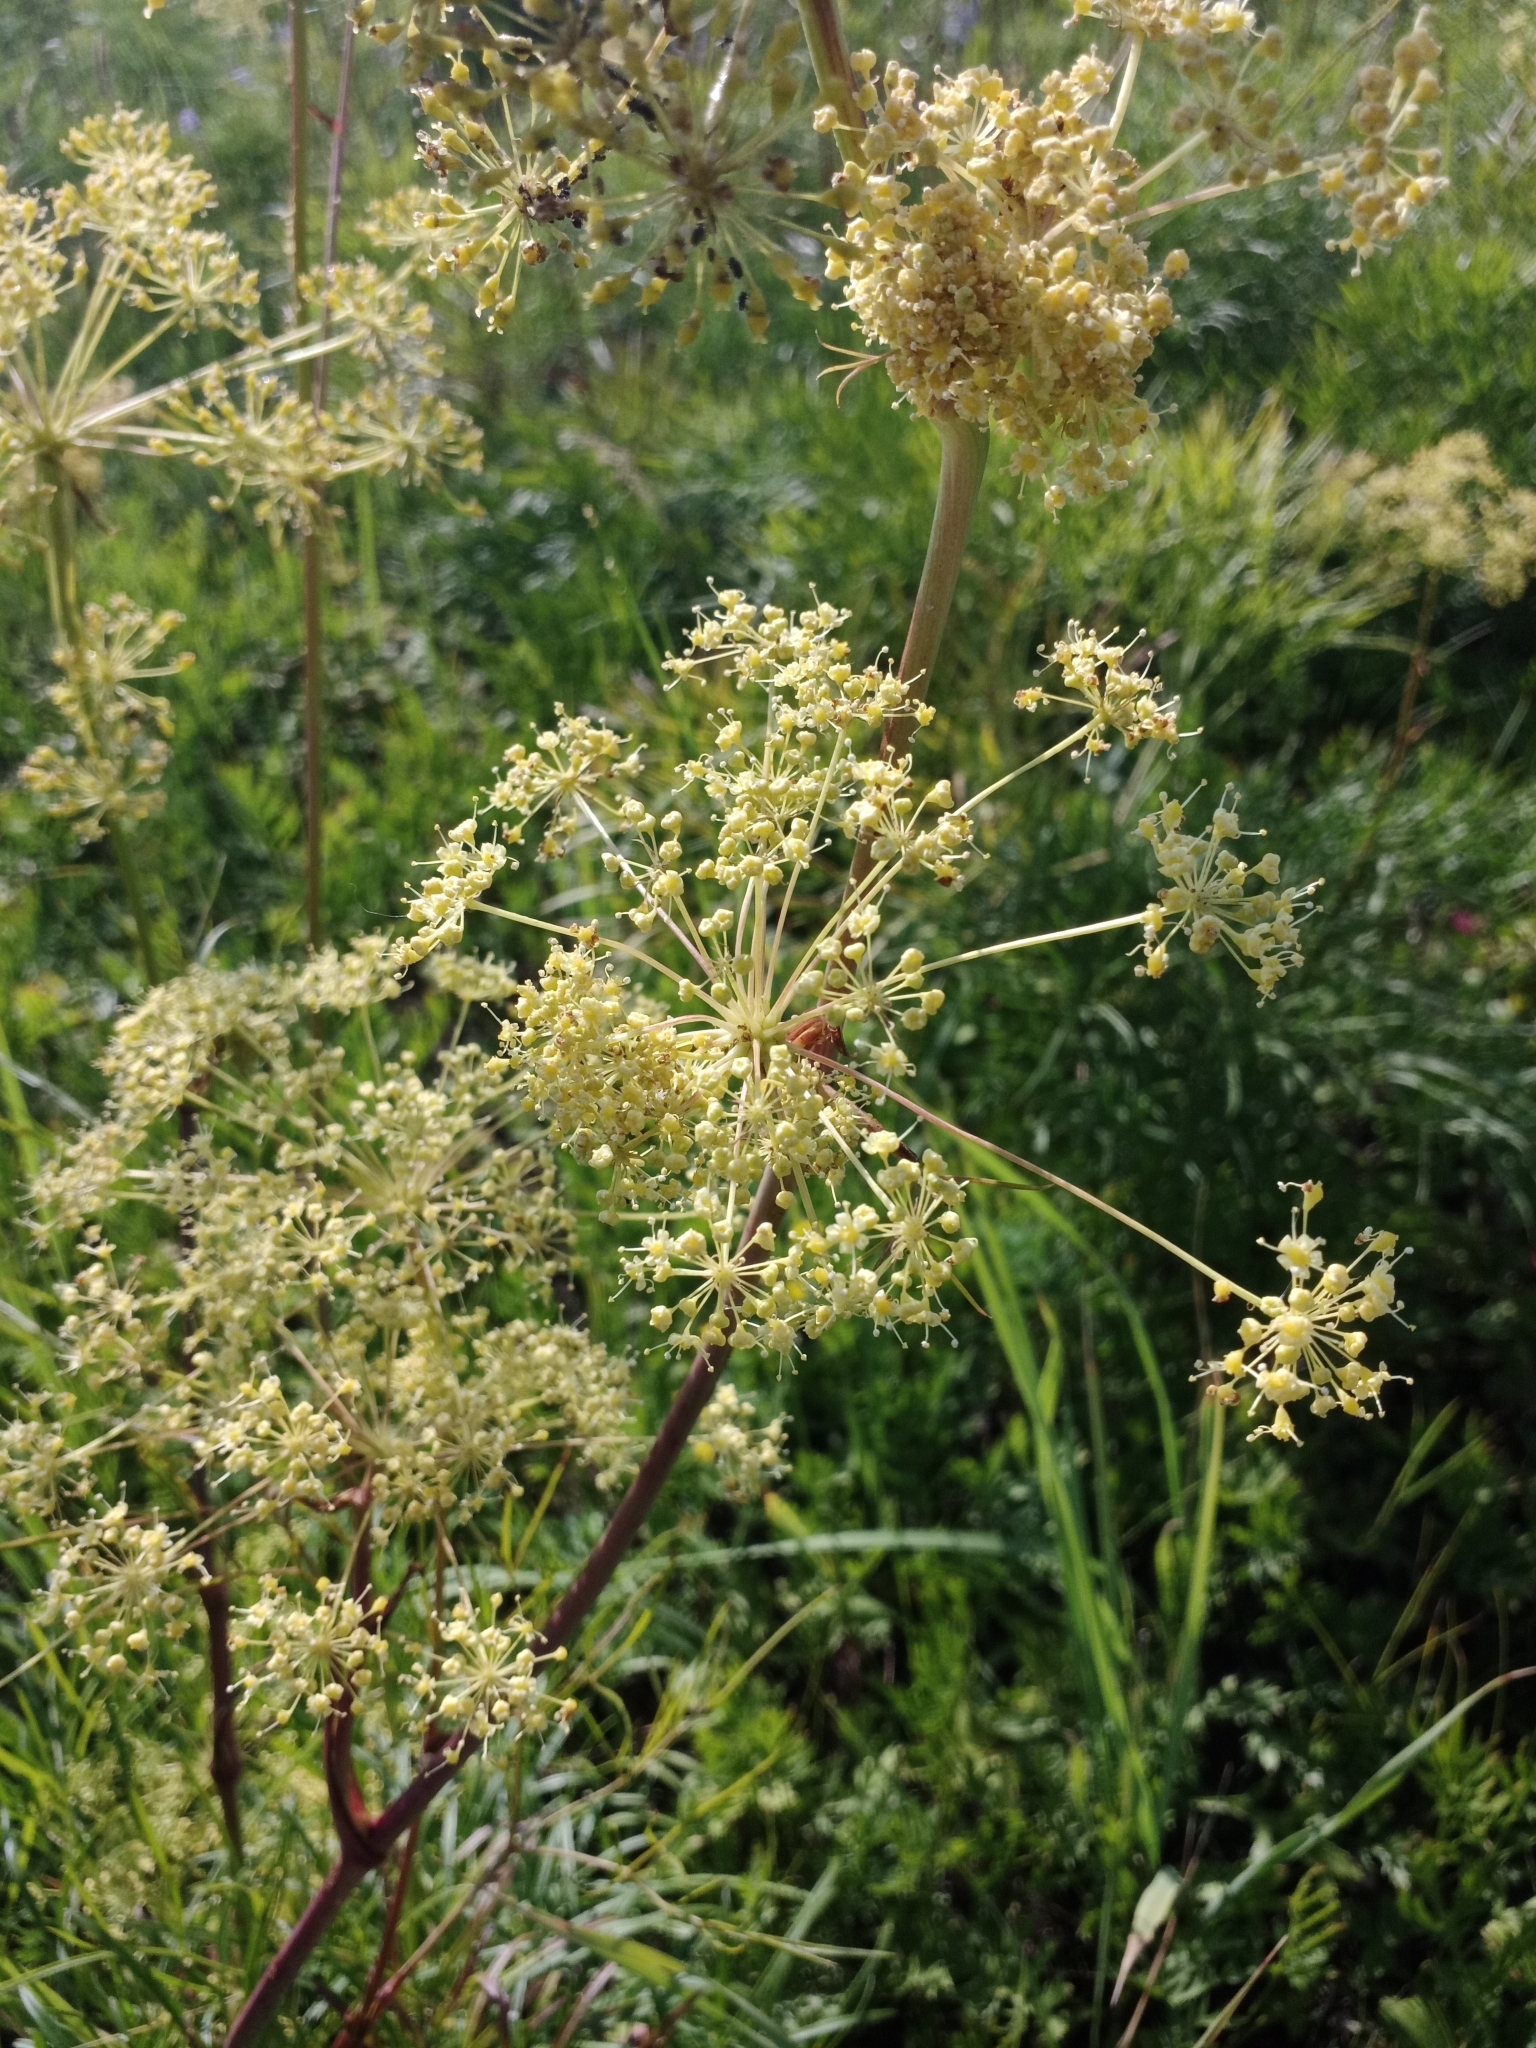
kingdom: Plantae
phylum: Tracheophyta
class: Magnoliopsida
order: Apiales
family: Apiaceae
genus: Peucedanum
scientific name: Peucedanum morisonii
